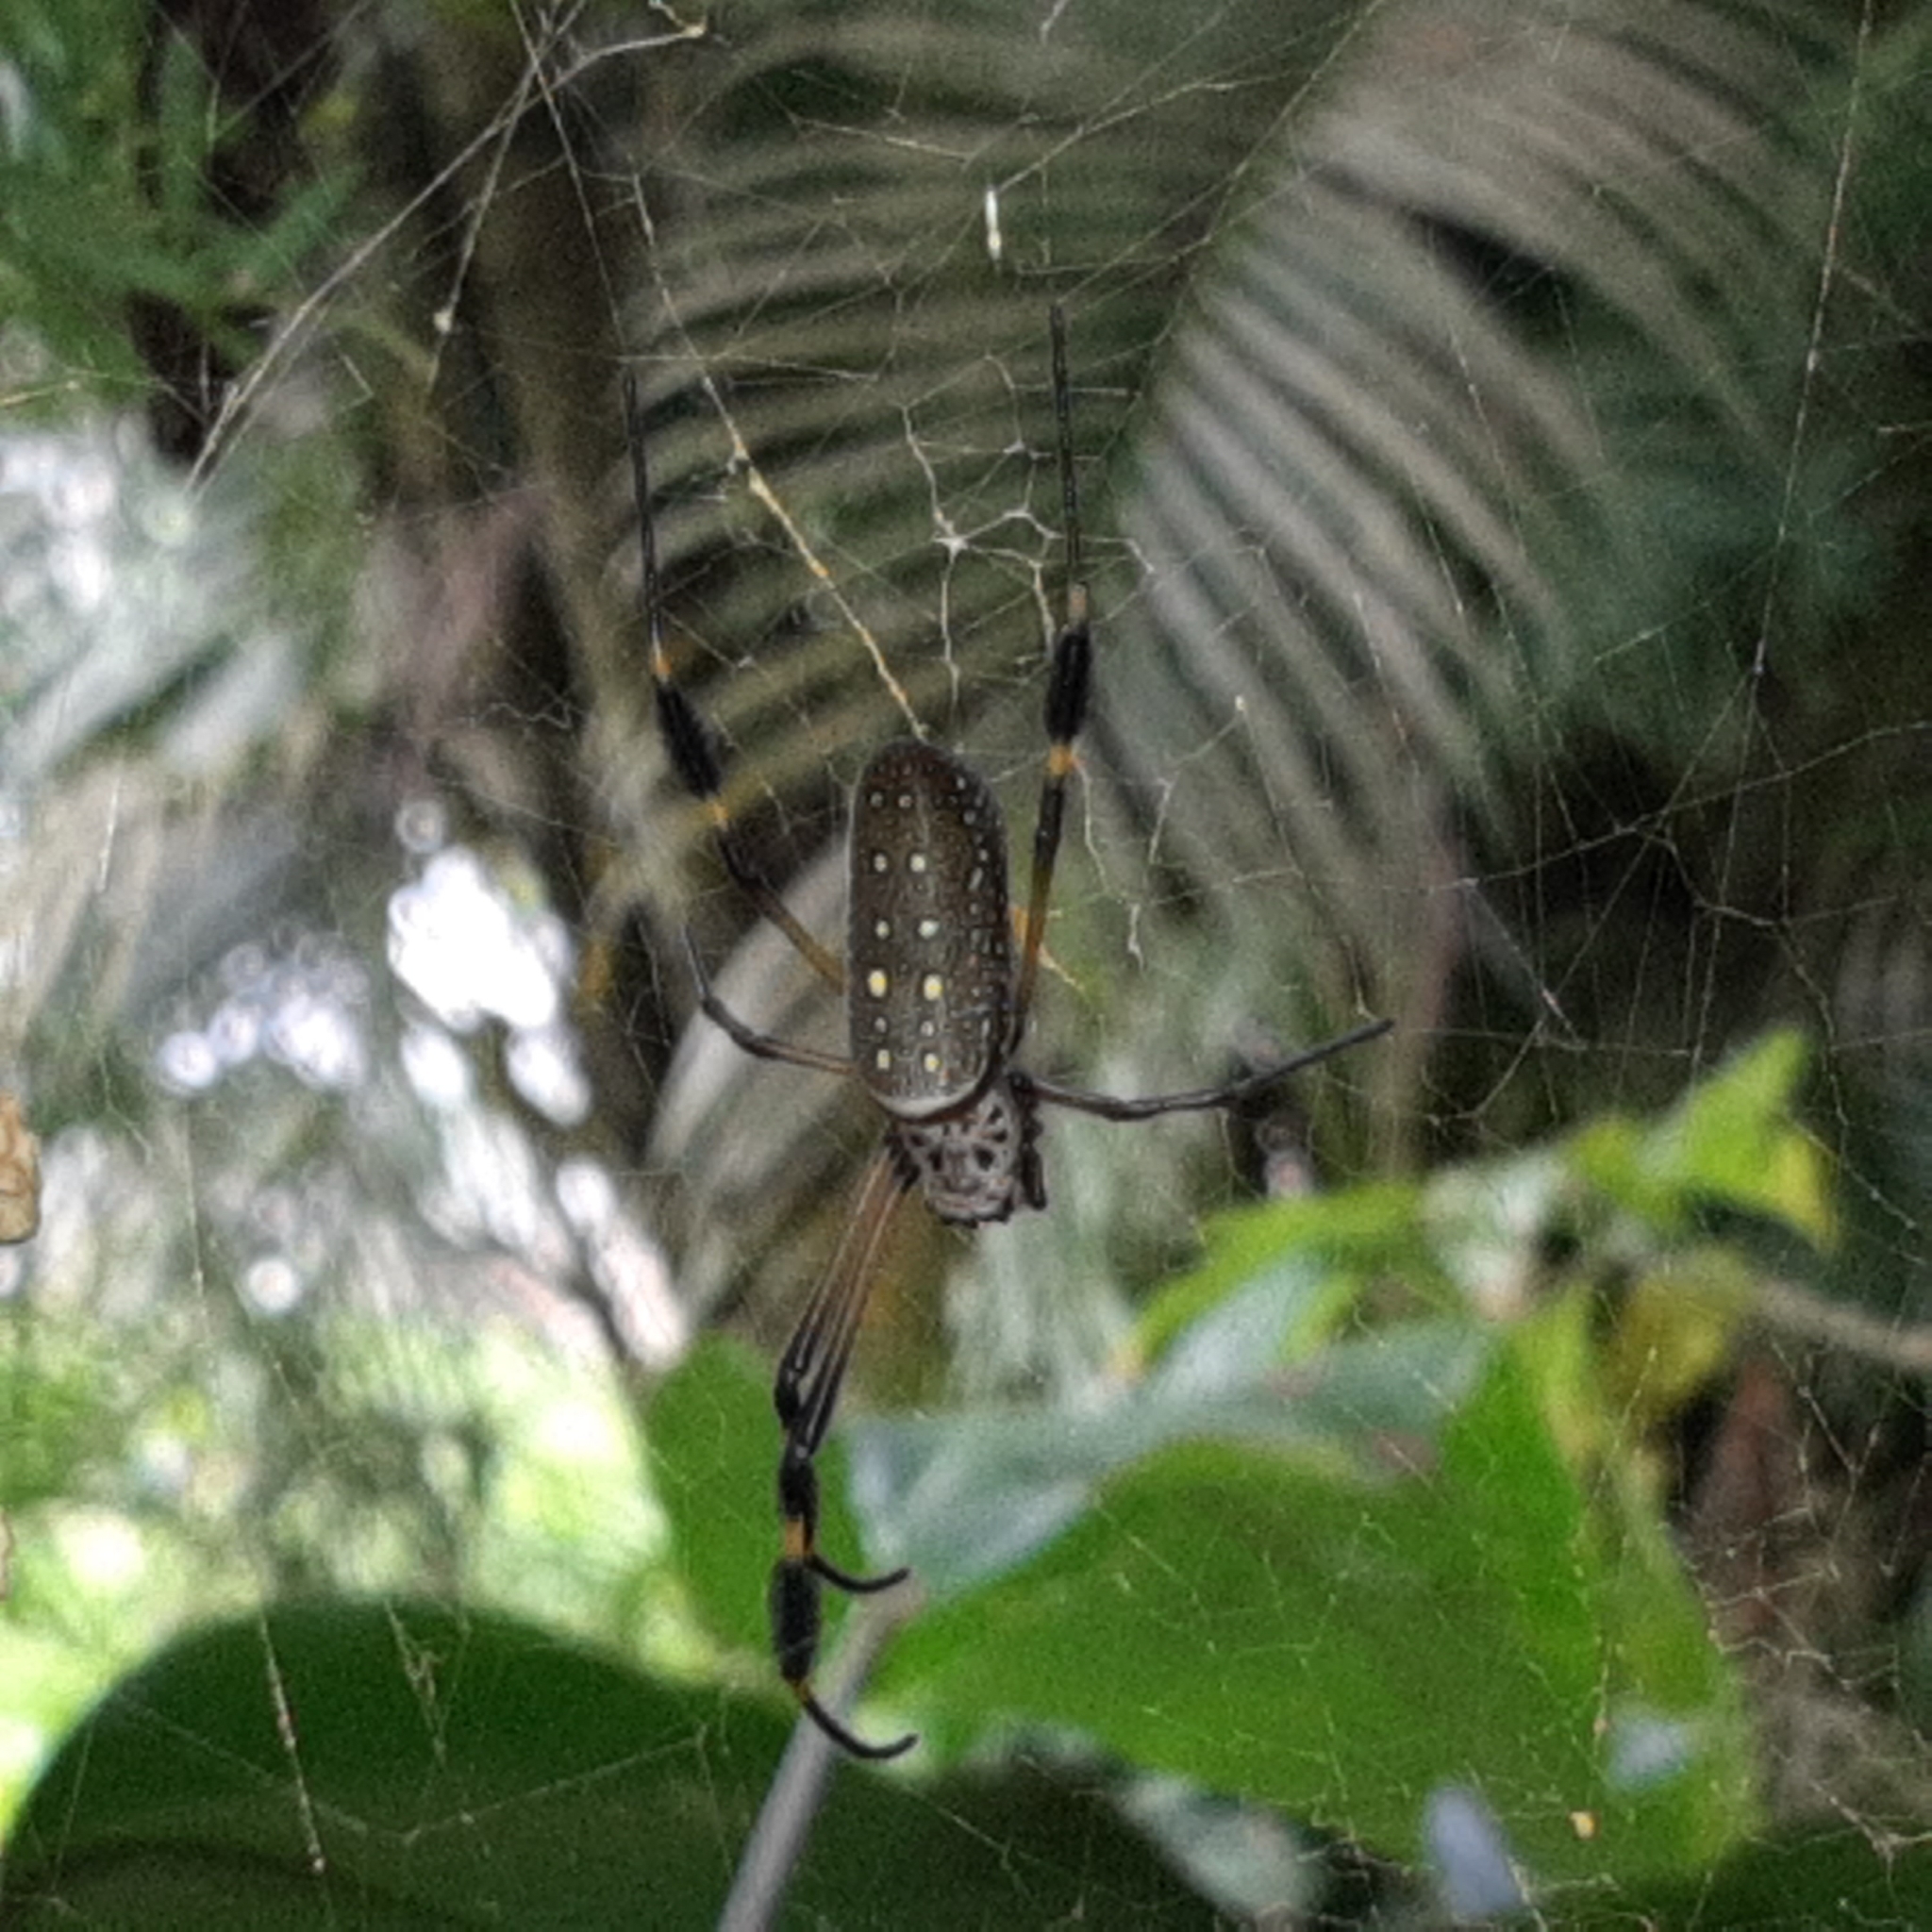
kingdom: Animalia
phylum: Arthropoda
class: Arachnida
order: Araneae
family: Araneidae
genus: Trichonephila
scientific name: Trichonephila clavipes
